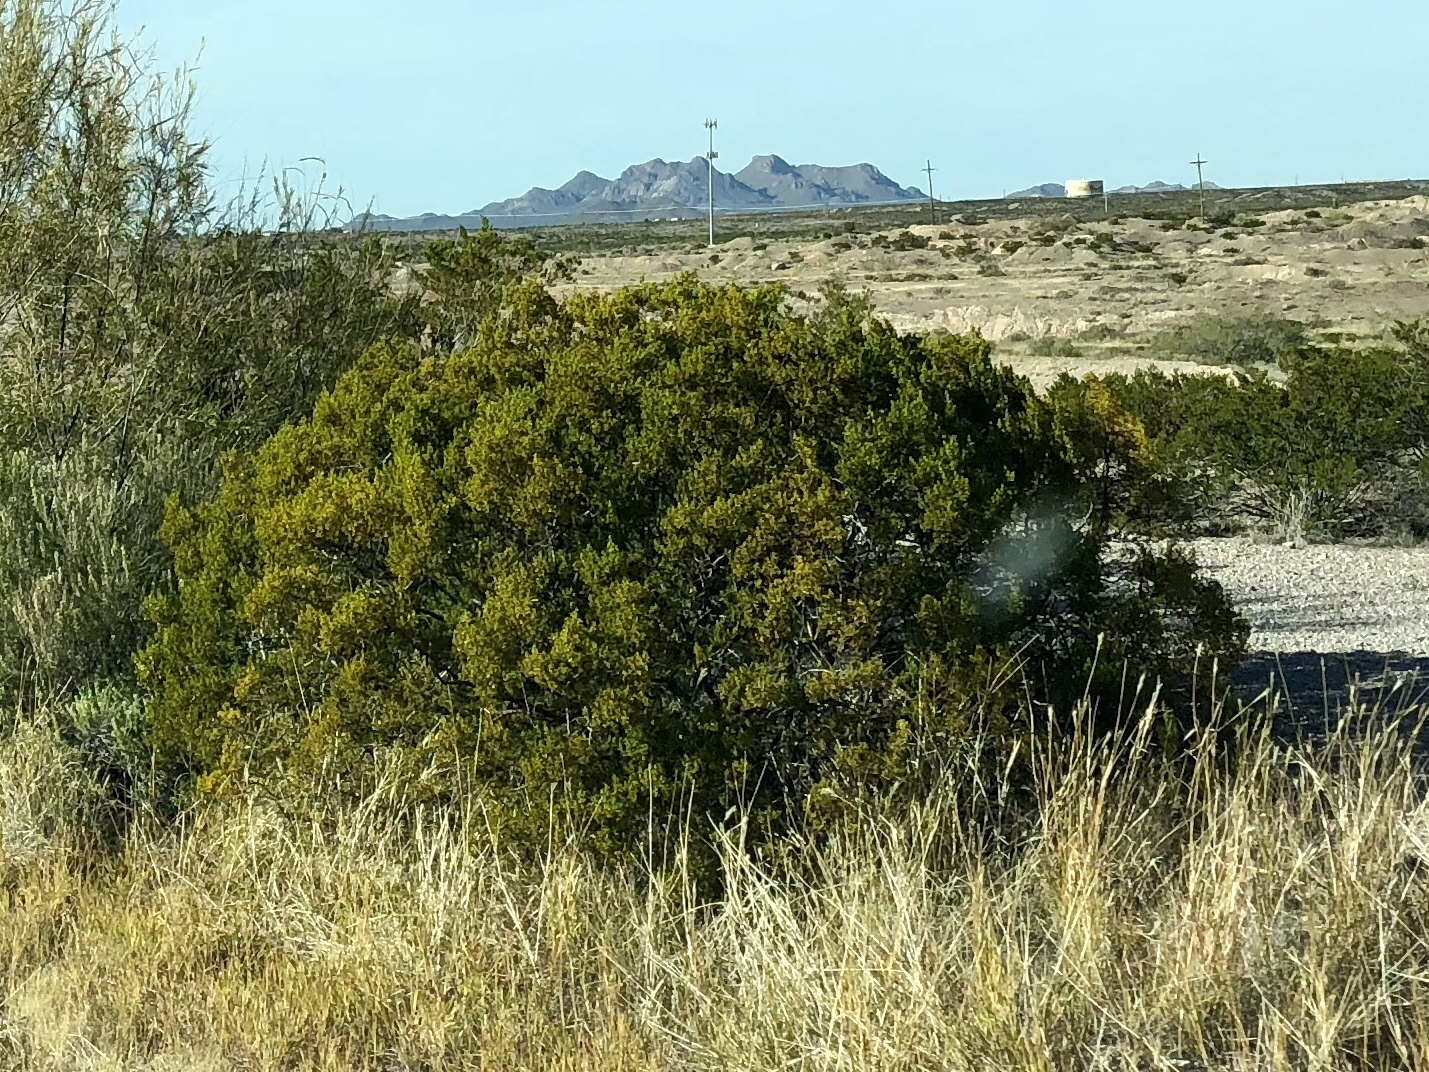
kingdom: Plantae
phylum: Tracheophyta
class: Magnoliopsida
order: Zygophyllales
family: Zygophyllaceae
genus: Larrea
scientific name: Larrea tridentata
